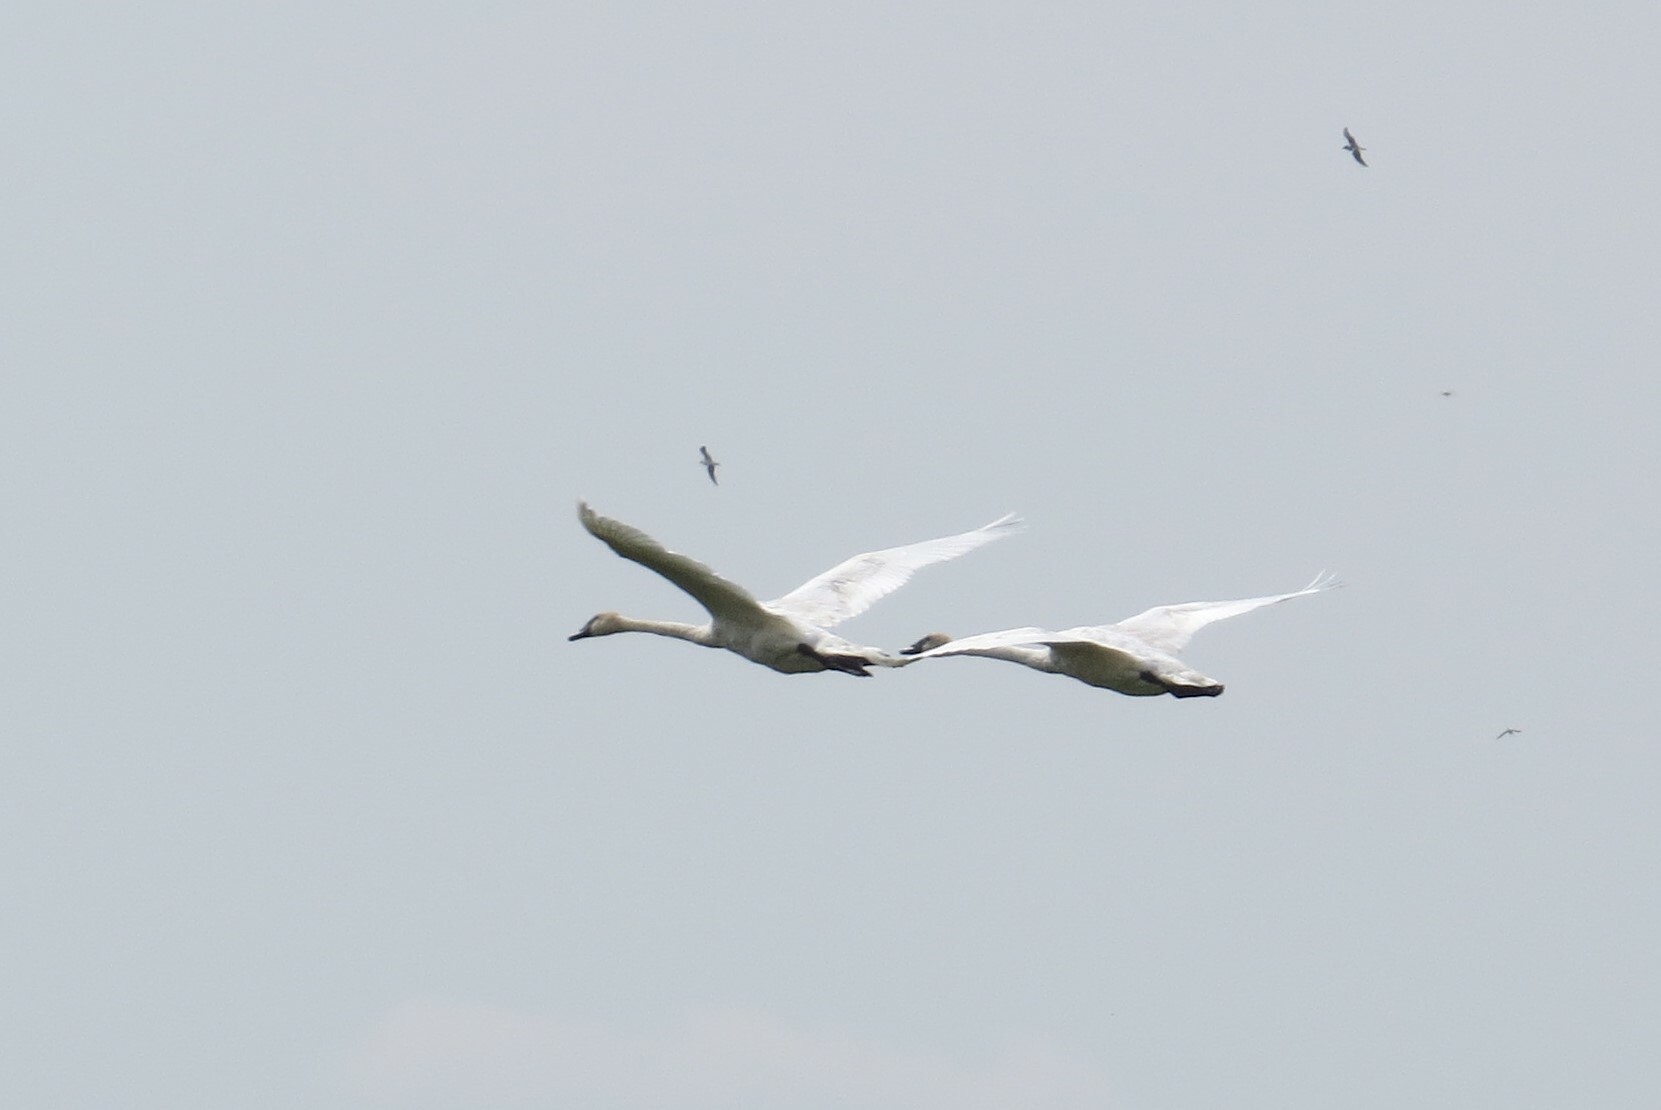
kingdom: Animalia
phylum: Chordata
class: Aves
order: Anseriformes
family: Anatidae
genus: Cygnus
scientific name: Cygnus buccinator
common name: Trumpeter swan
